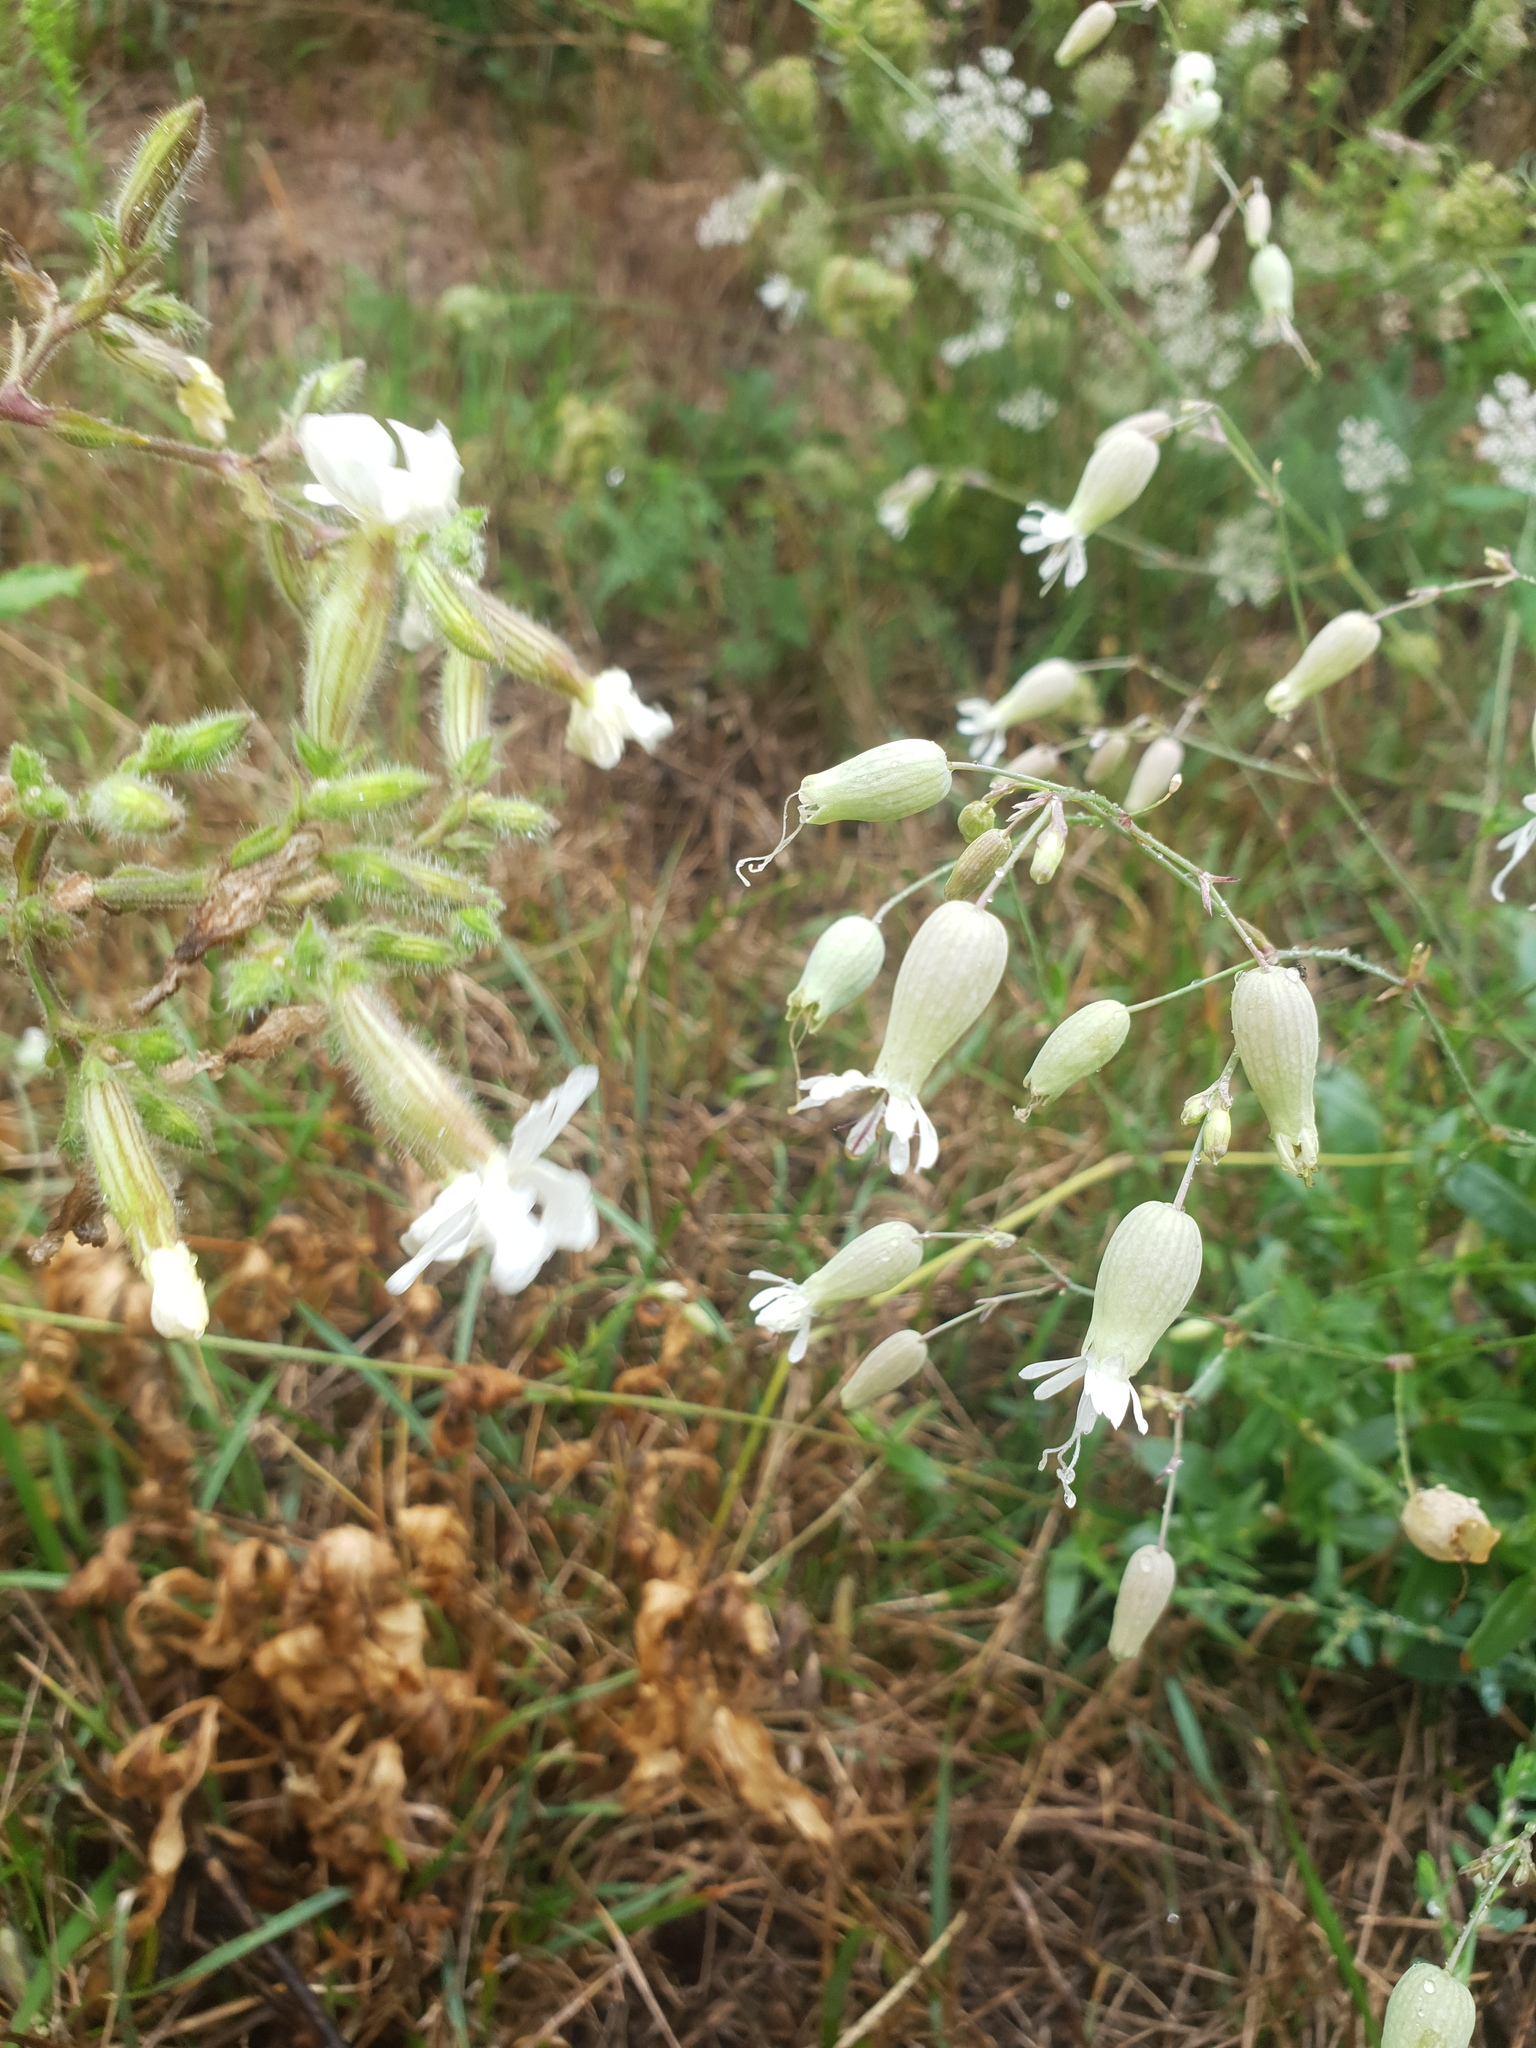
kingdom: Plantae
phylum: Tracheophyta
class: Magnoliopsida
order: Caryophyllales
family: Caryophyllaceae
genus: Silene
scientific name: Silene vulgaris
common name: Bladder campion
